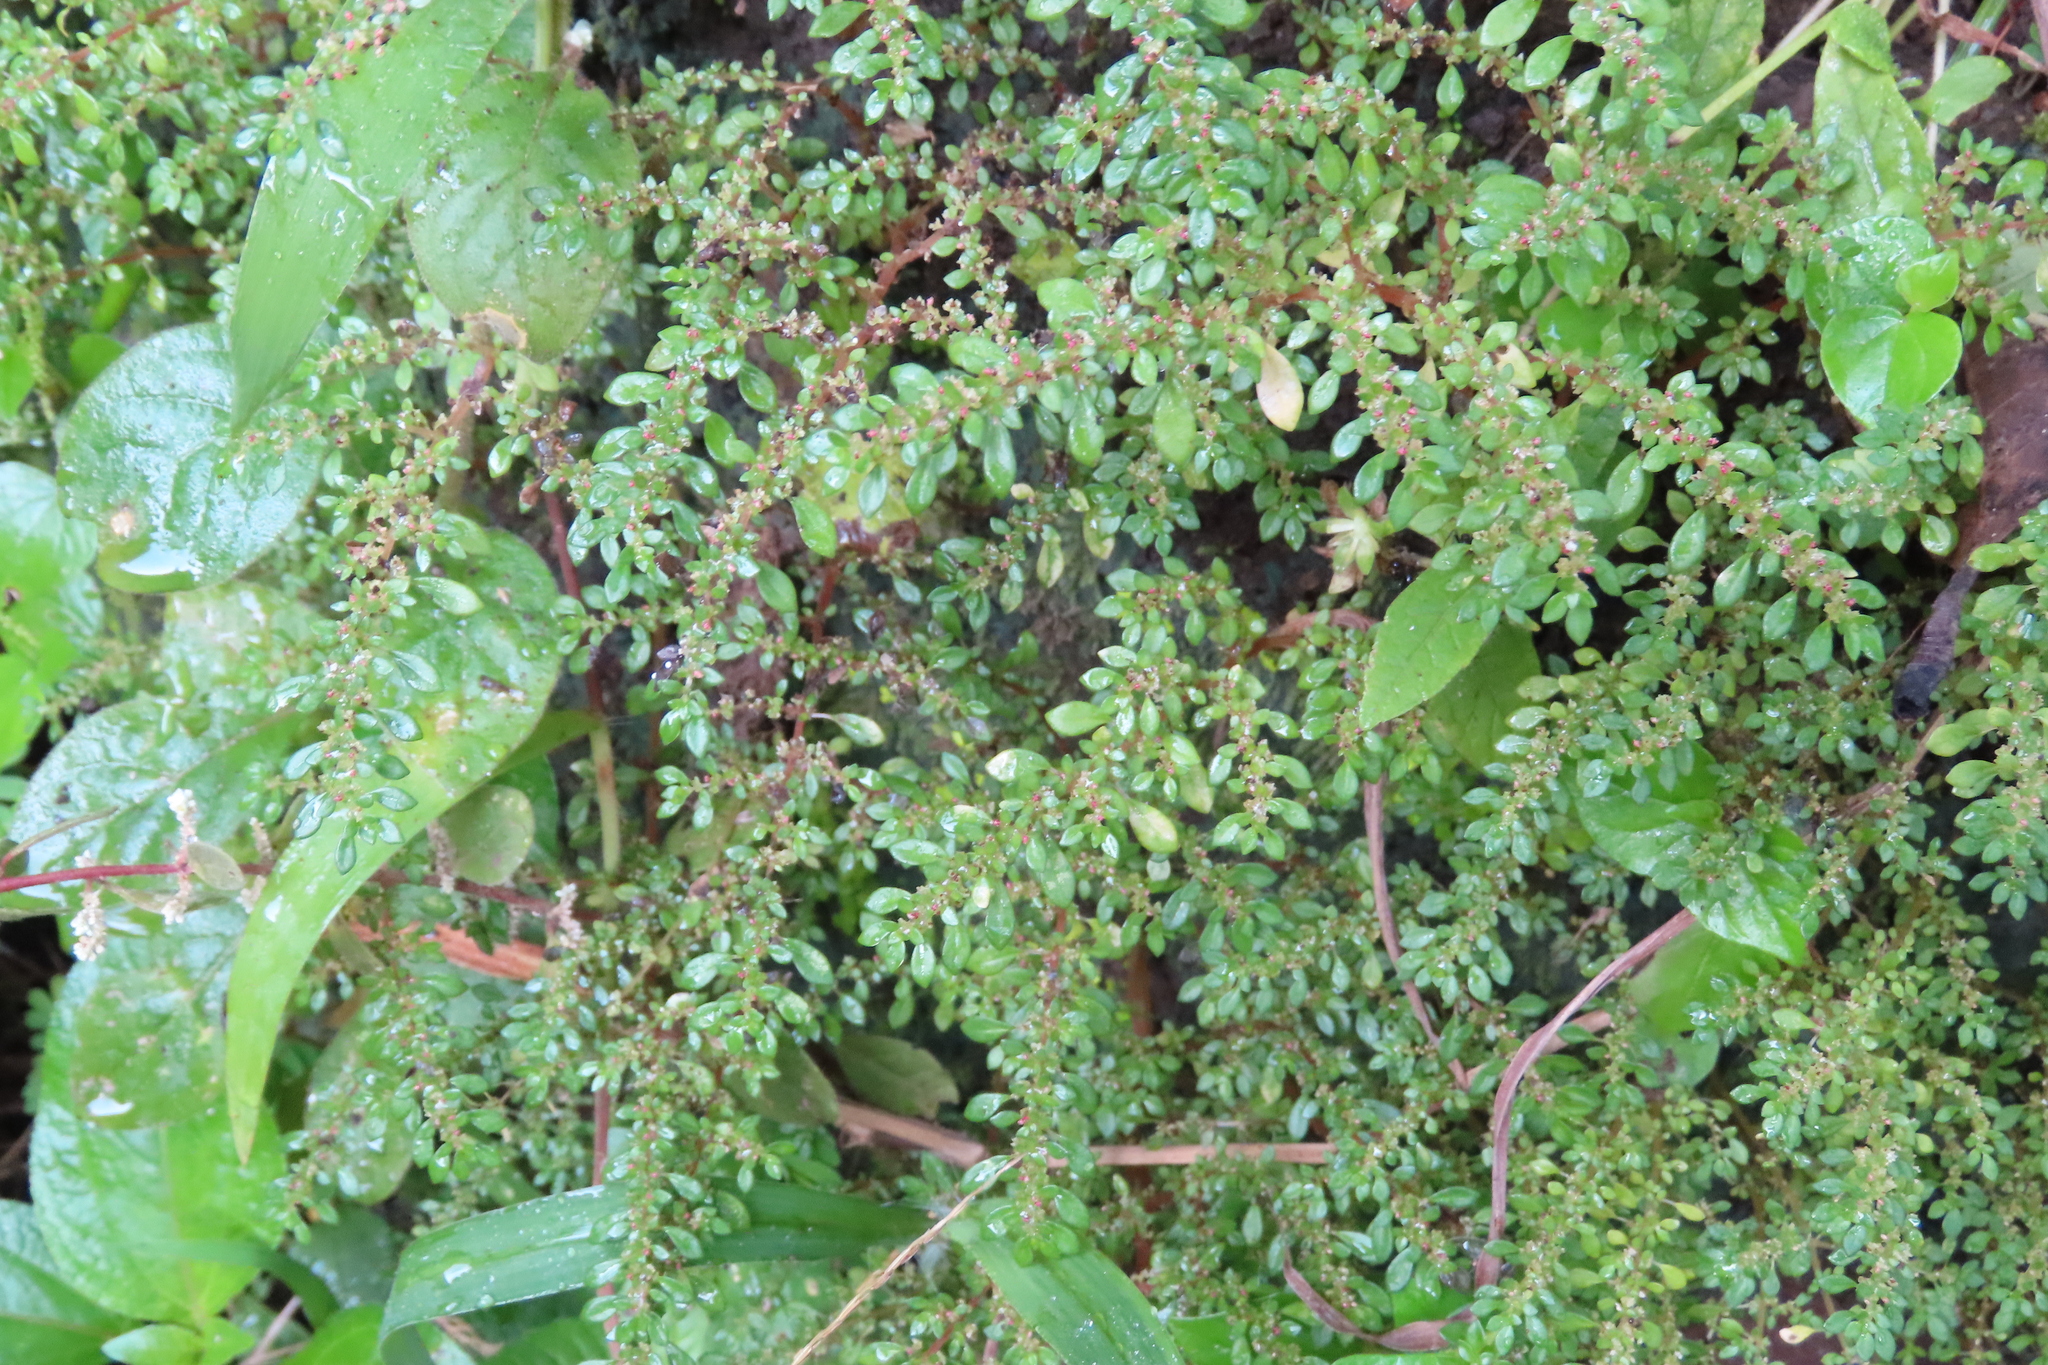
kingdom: Plantae
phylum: Tracheophyta
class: Magnoliopsida
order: Rosales
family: Urticaceae
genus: Pilea
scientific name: Pilea microphylla
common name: Artillery-plant
